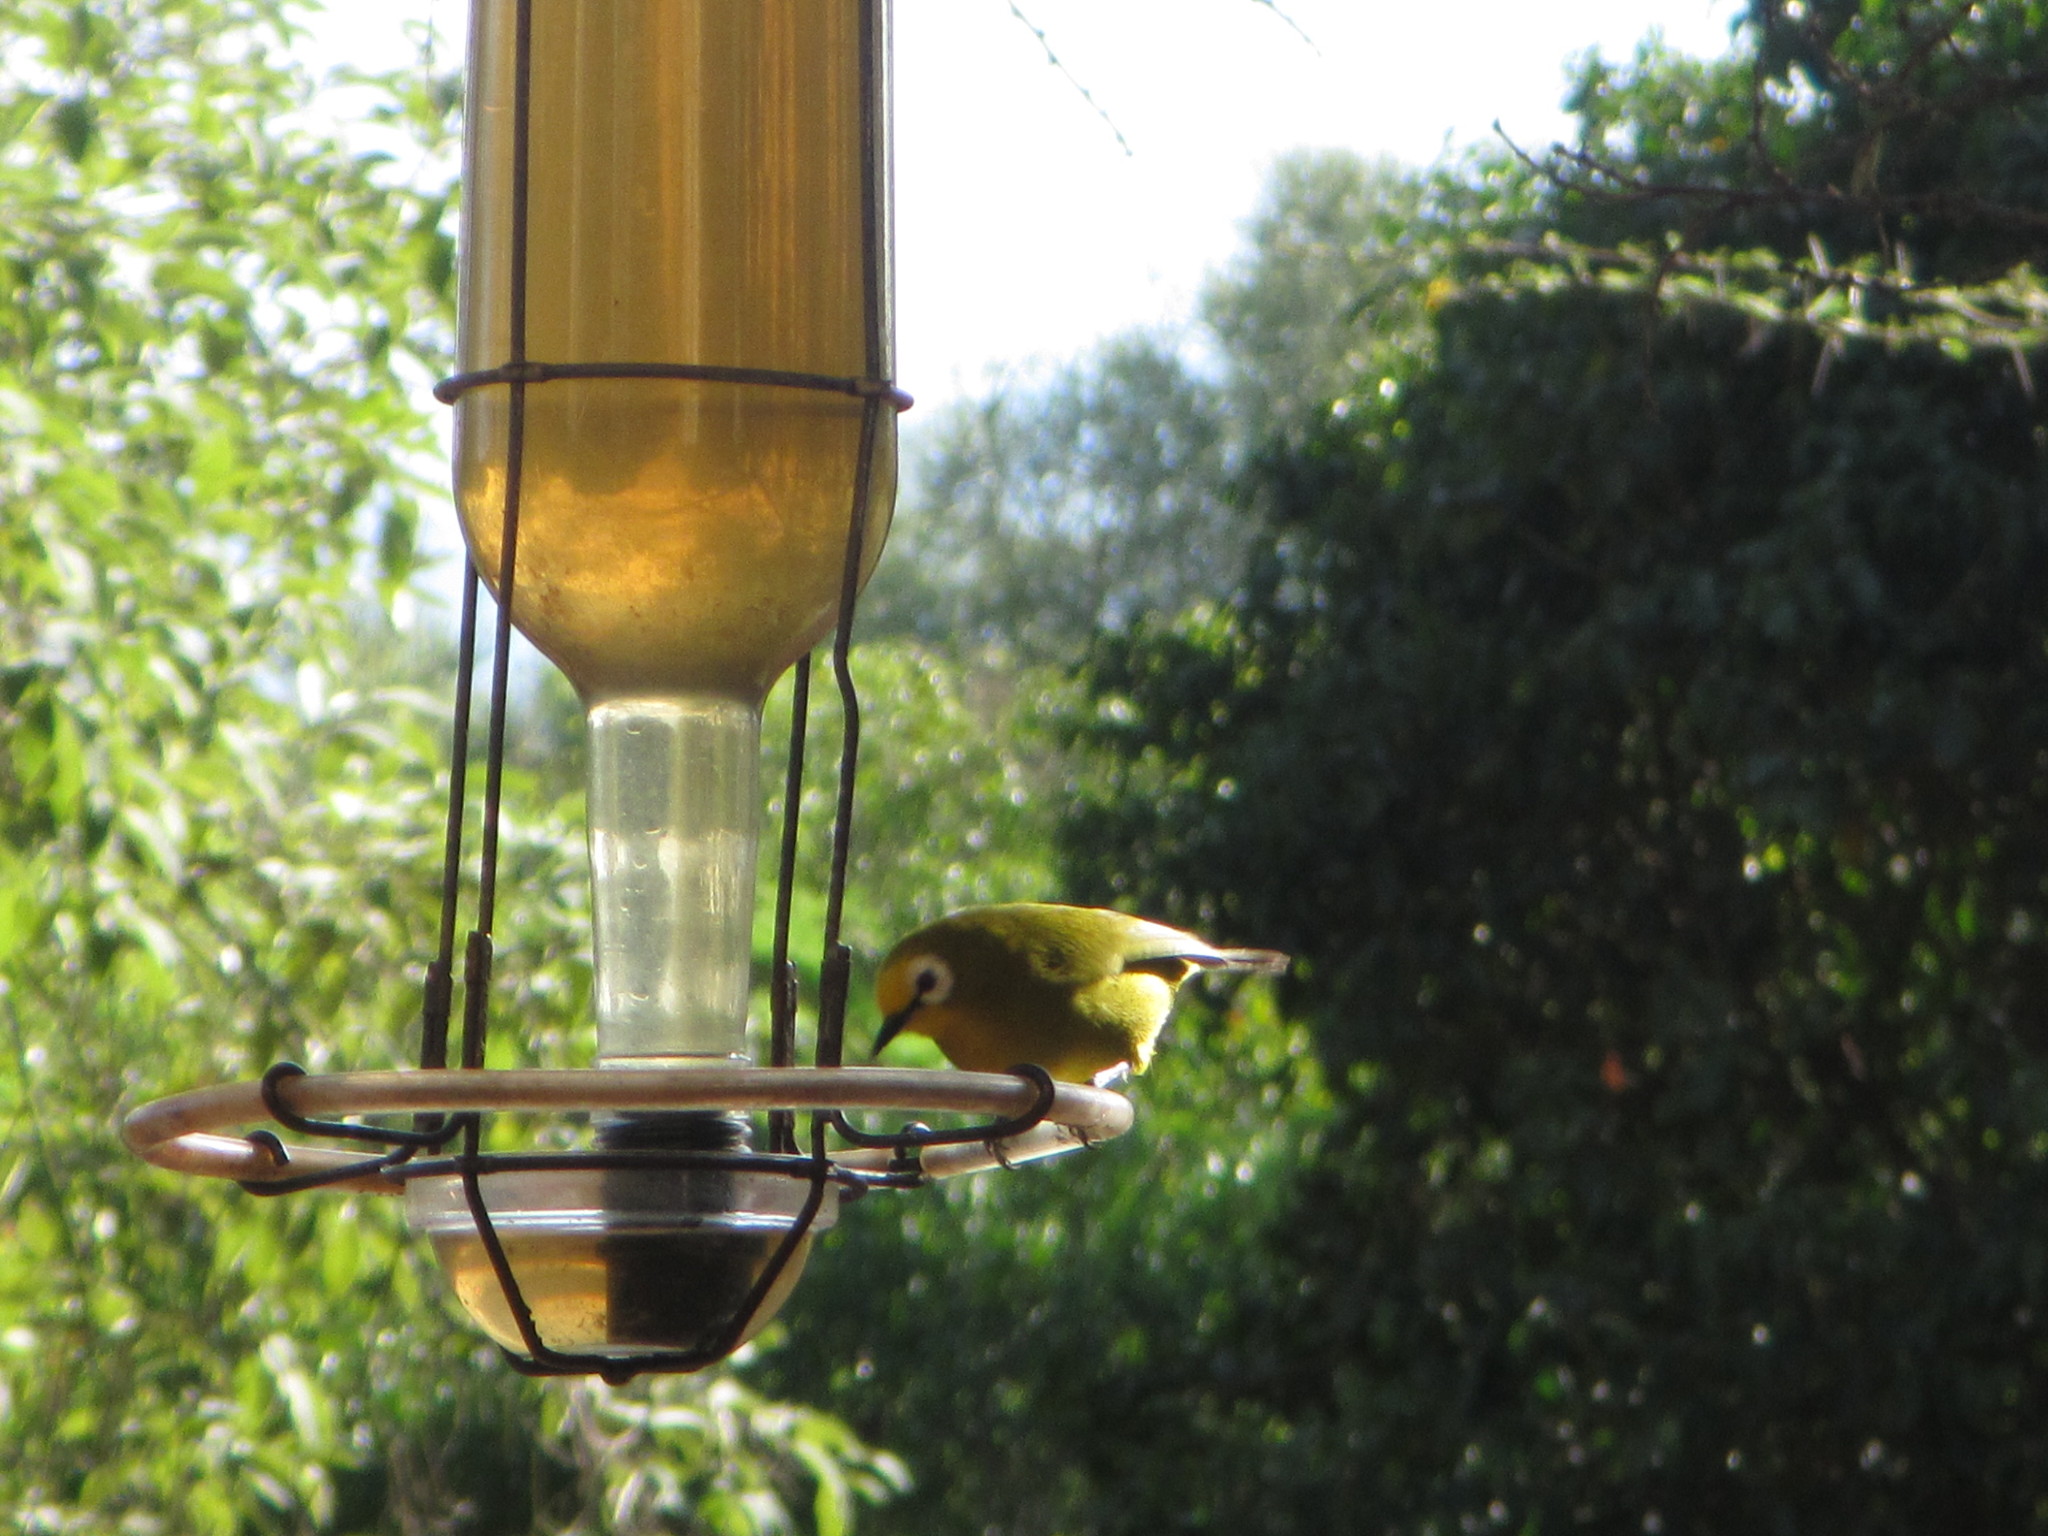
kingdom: Animalia
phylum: Chordata
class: Aves
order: Passeriformes
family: Zosteropidae
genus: Zosterops
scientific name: Zosterops kikuyuensis
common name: Kikuyu white-eye
